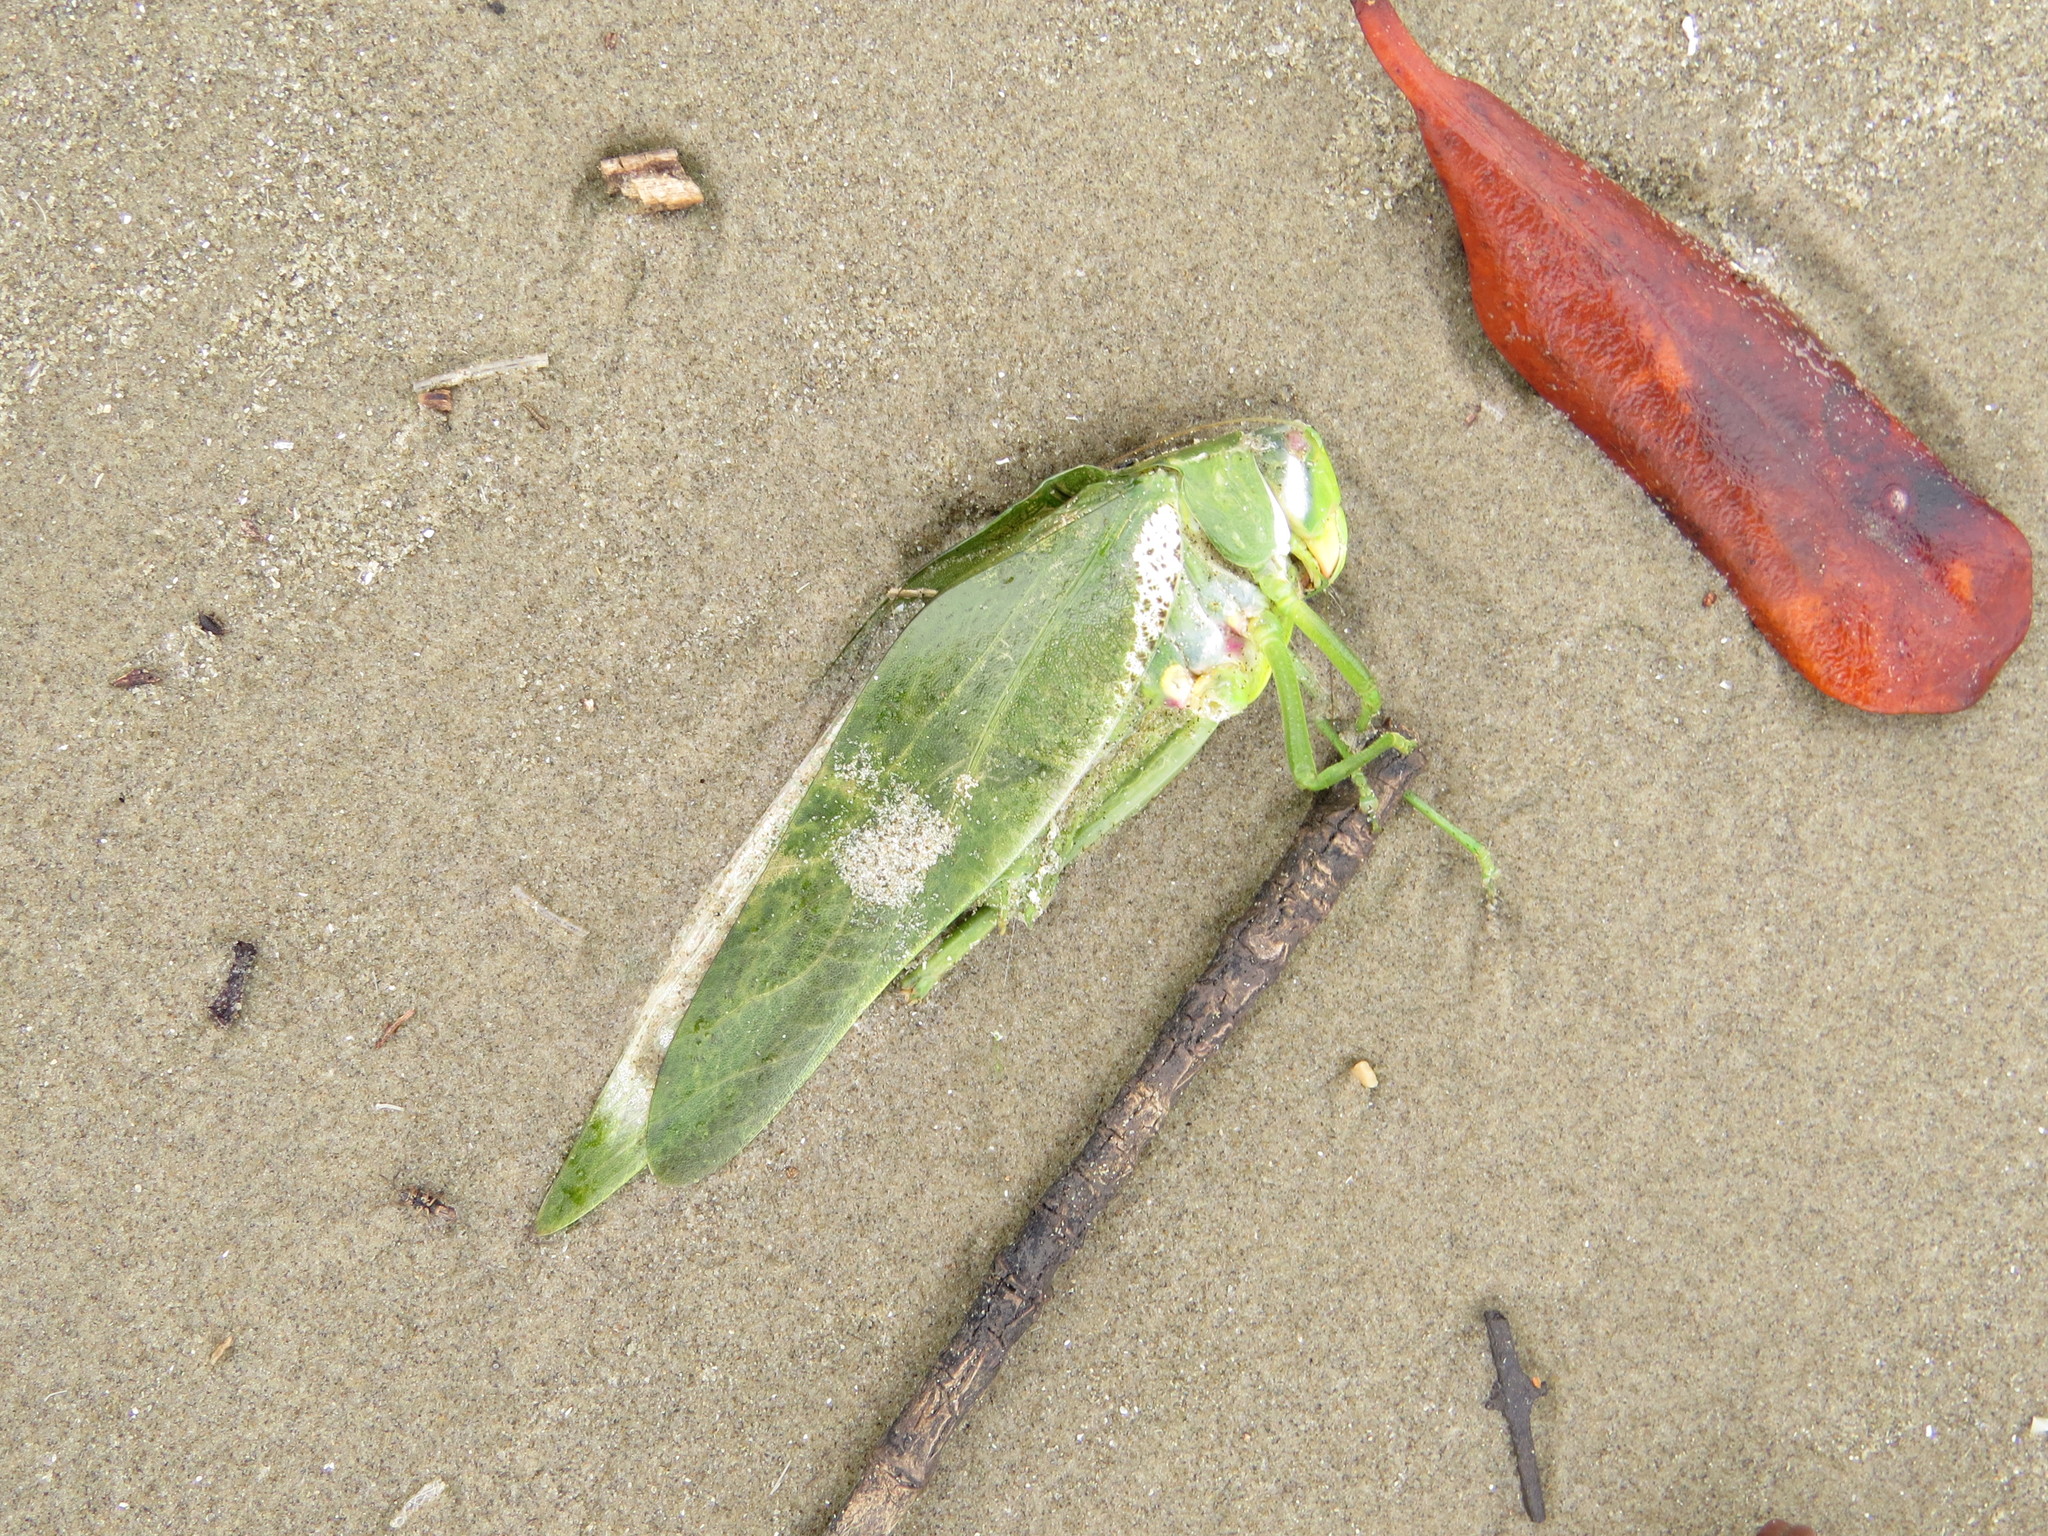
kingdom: Animalia
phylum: Arthropoda
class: Insecta
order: Orthoptera
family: Tettigoniidae
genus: Philophyllia
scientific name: Philophyllia latior
